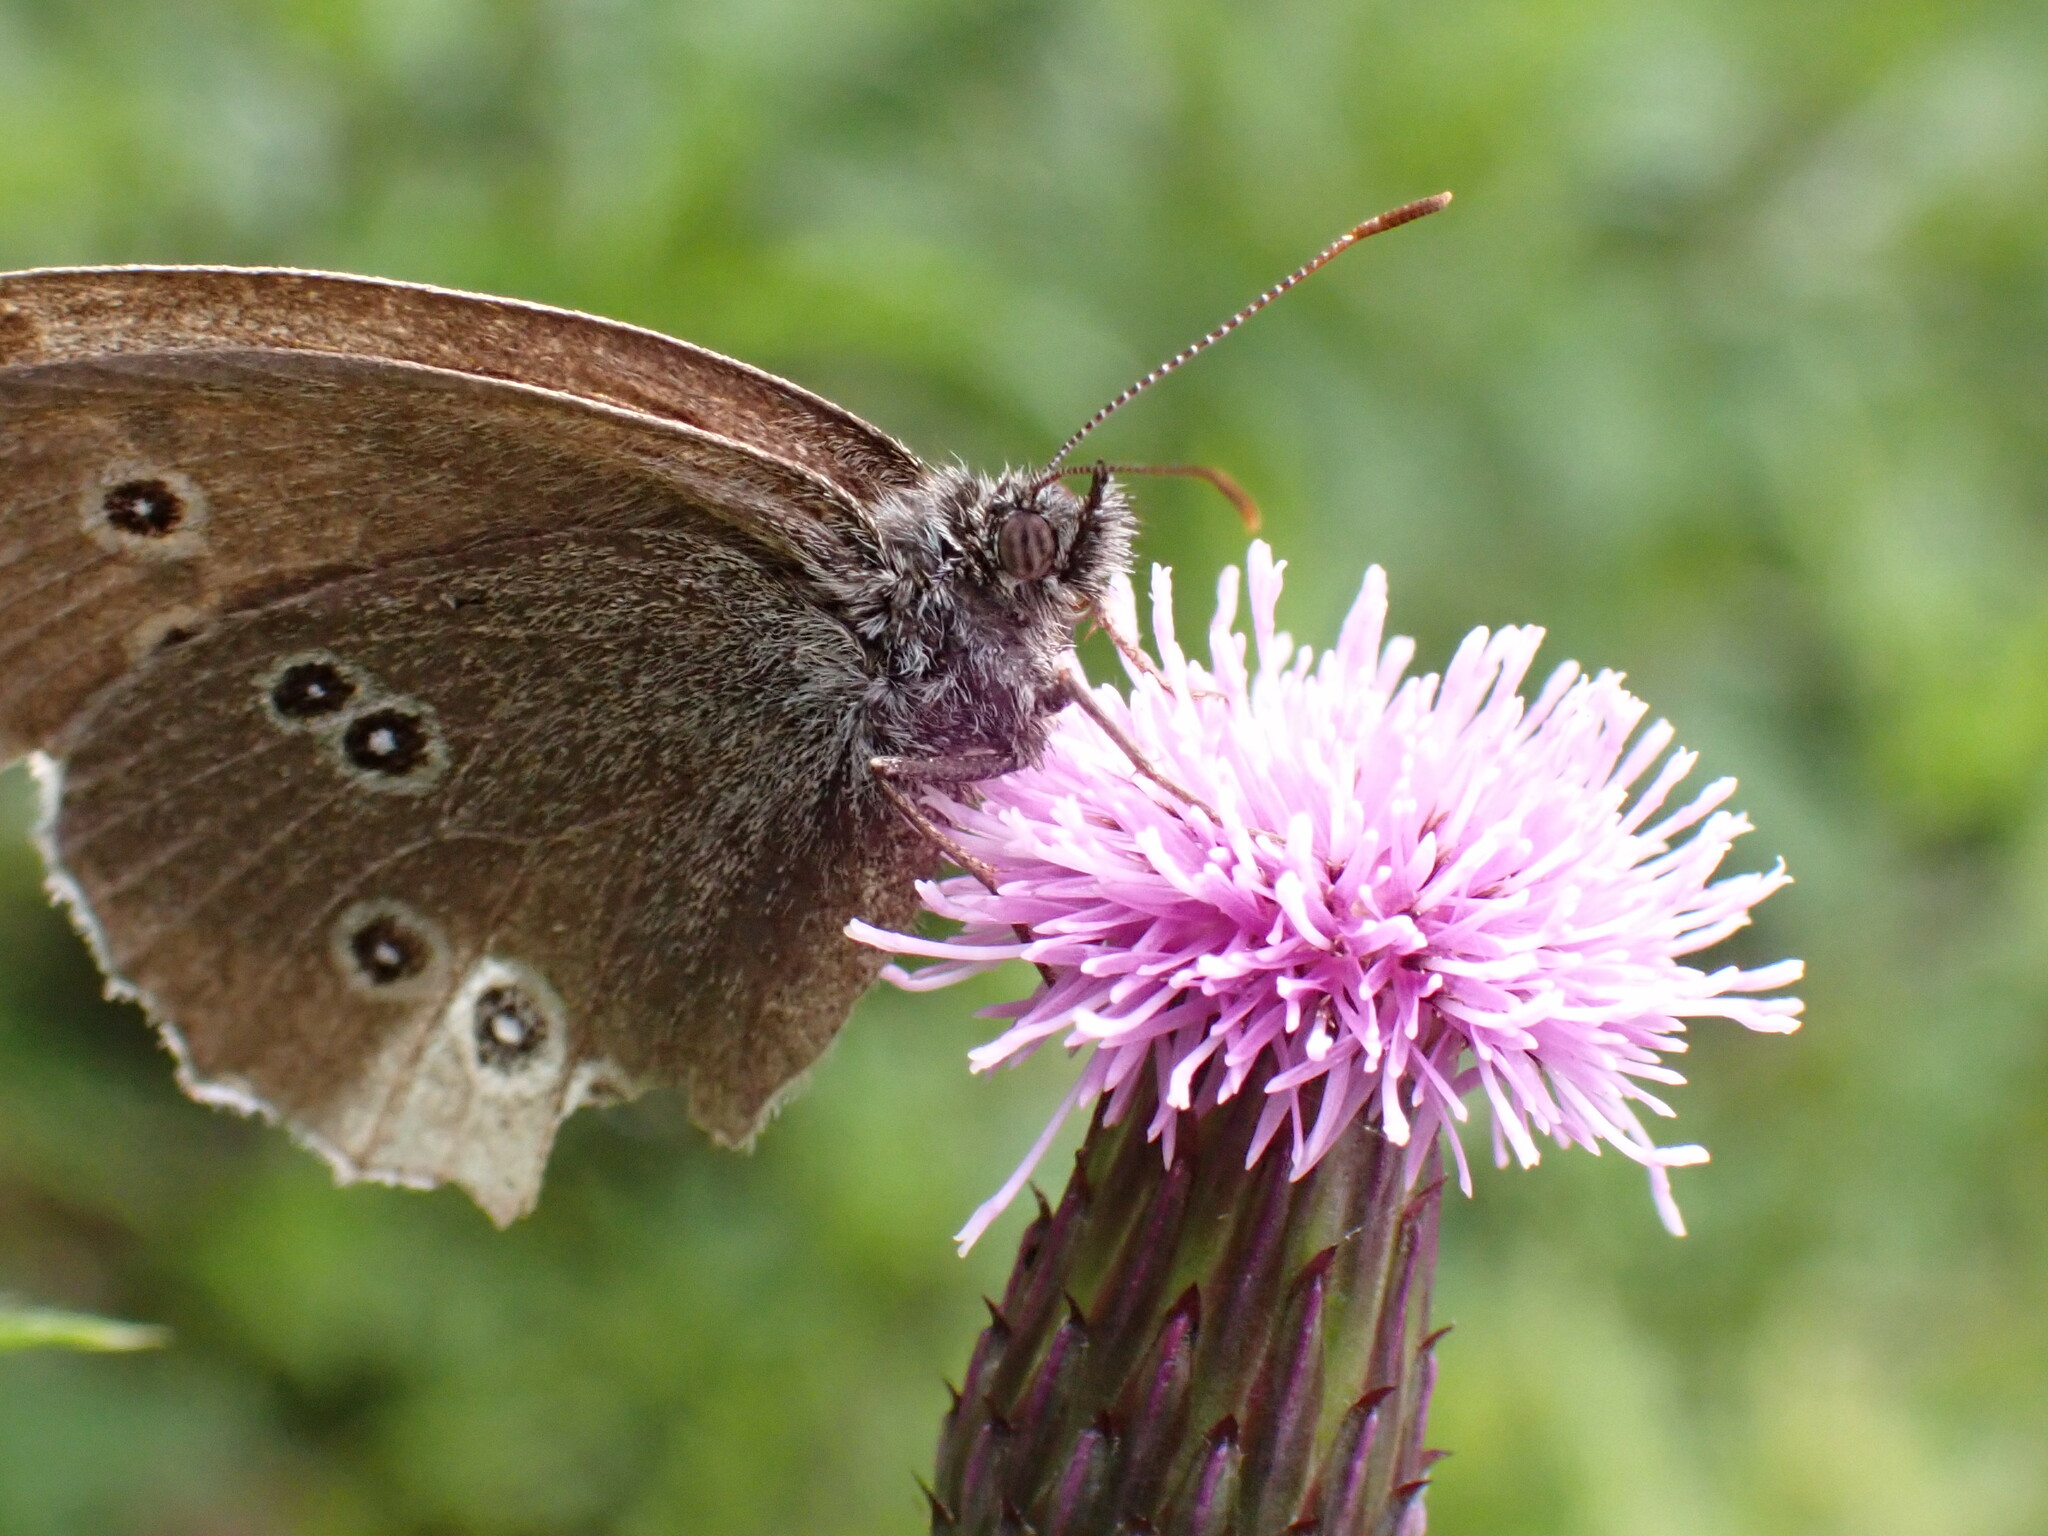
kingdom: Animalia
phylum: Arthropoda
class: Insecta
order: Lepidoptera
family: Nymphalidae
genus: Aphantopus
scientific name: Aphantopus hyperantus
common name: Ringlet
